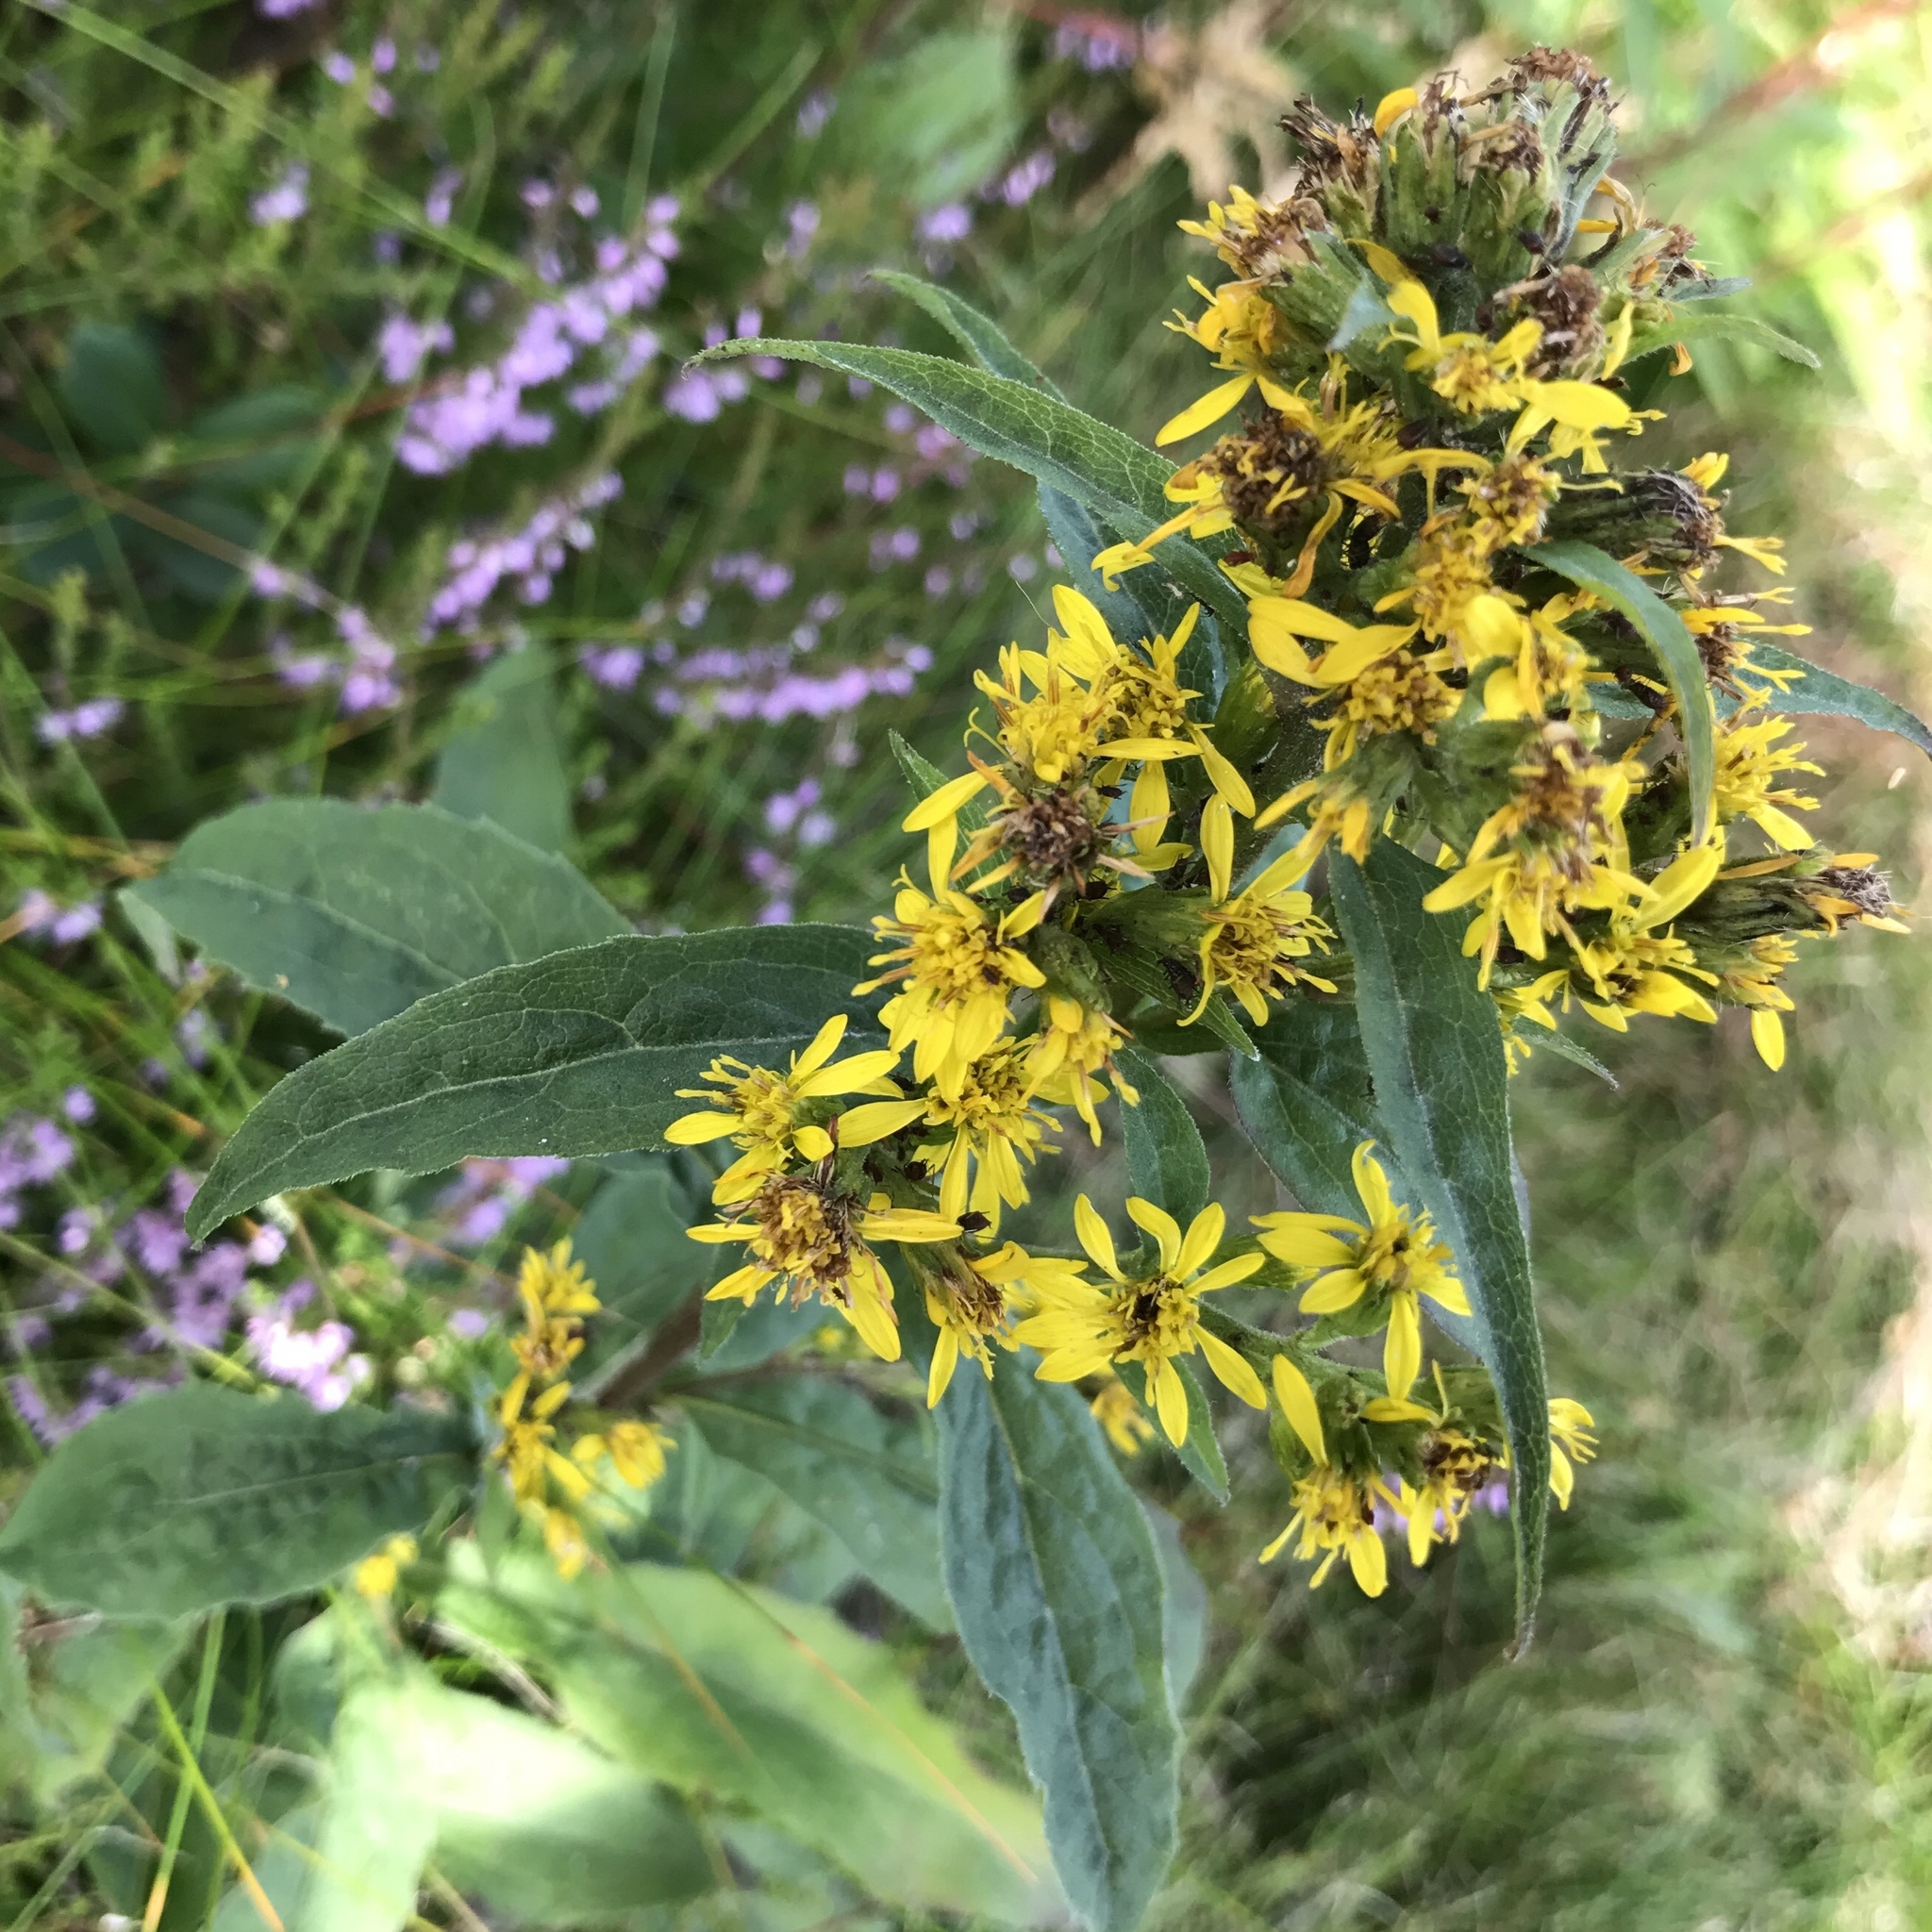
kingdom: Plantae
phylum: Tracheophyta
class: Magnoliopsida
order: Asterales
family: Asteraceae
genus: Solidago
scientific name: Solidago virgaurea
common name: Goldenrod
